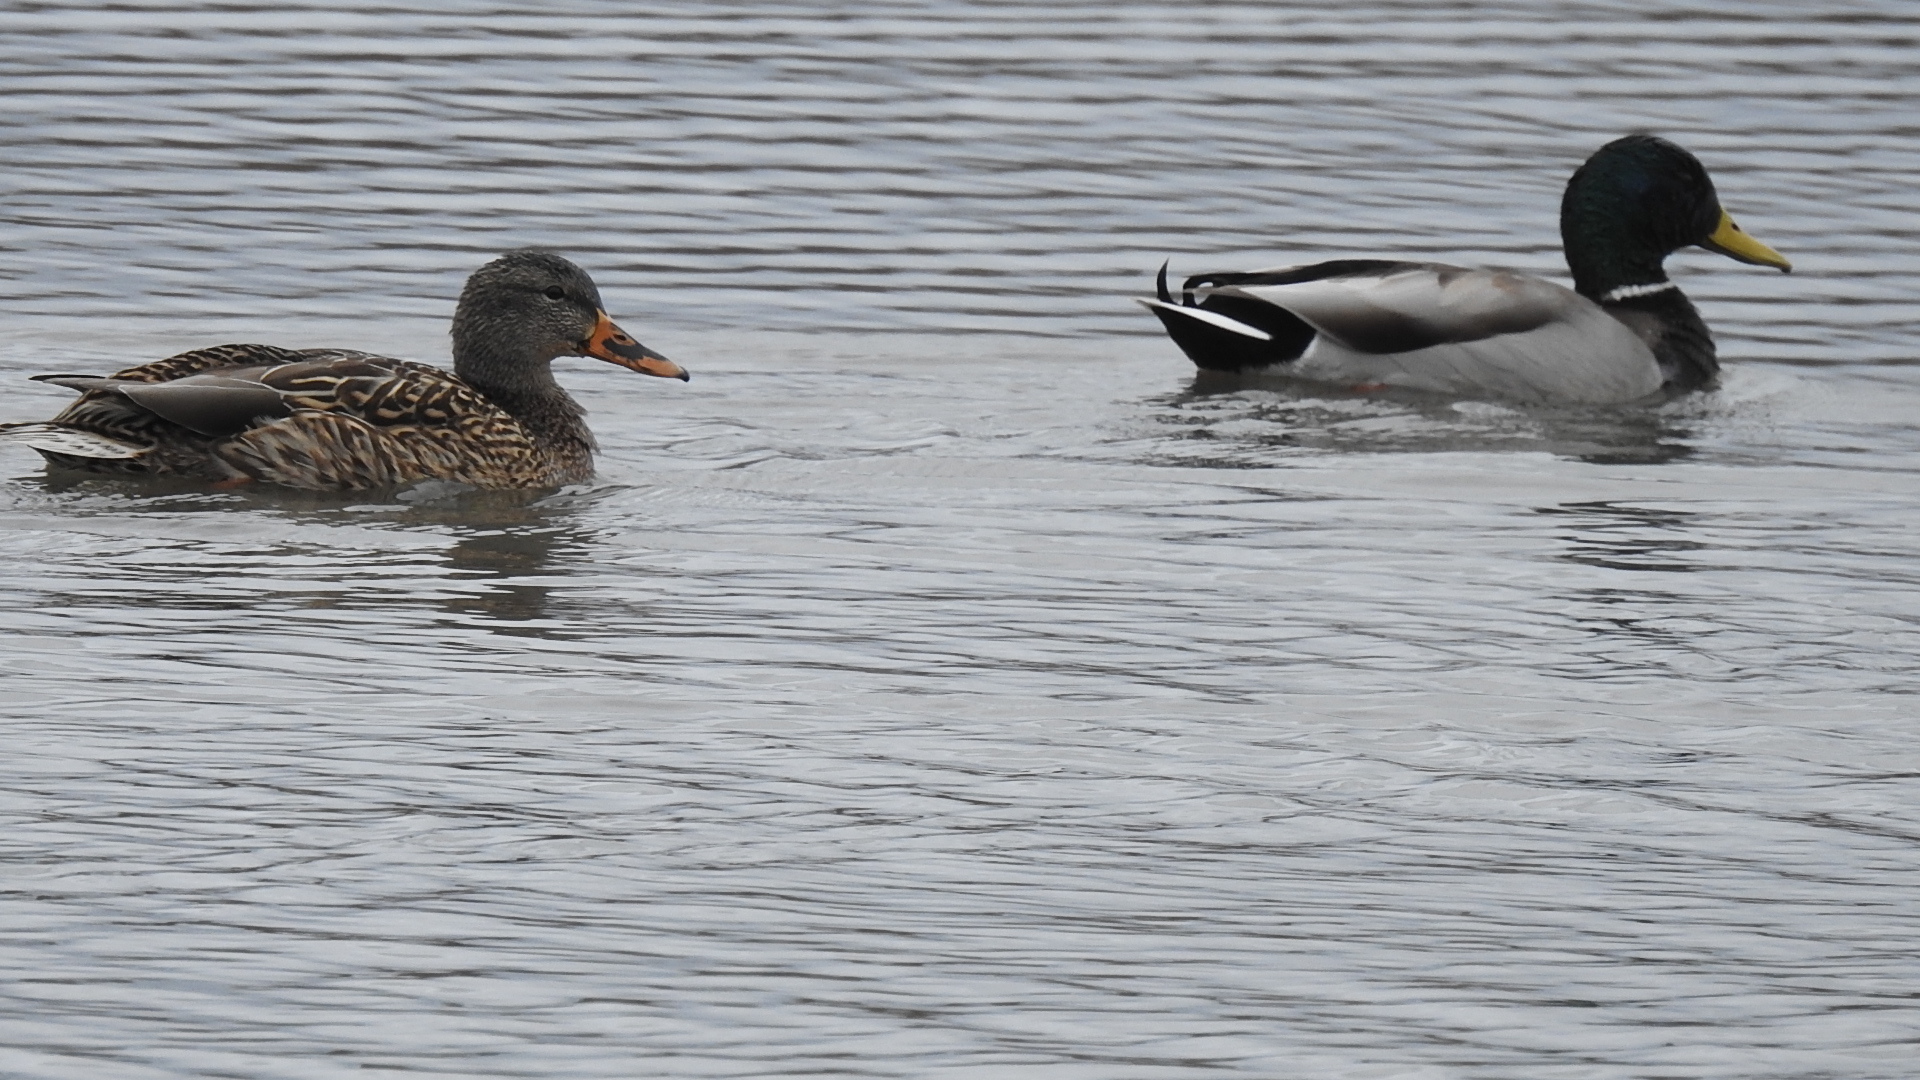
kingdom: Animalia
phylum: Chordata
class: Aves
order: Anseriformes
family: Anatidae
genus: Anas
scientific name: Anas platyrhynchos
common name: Mallard
